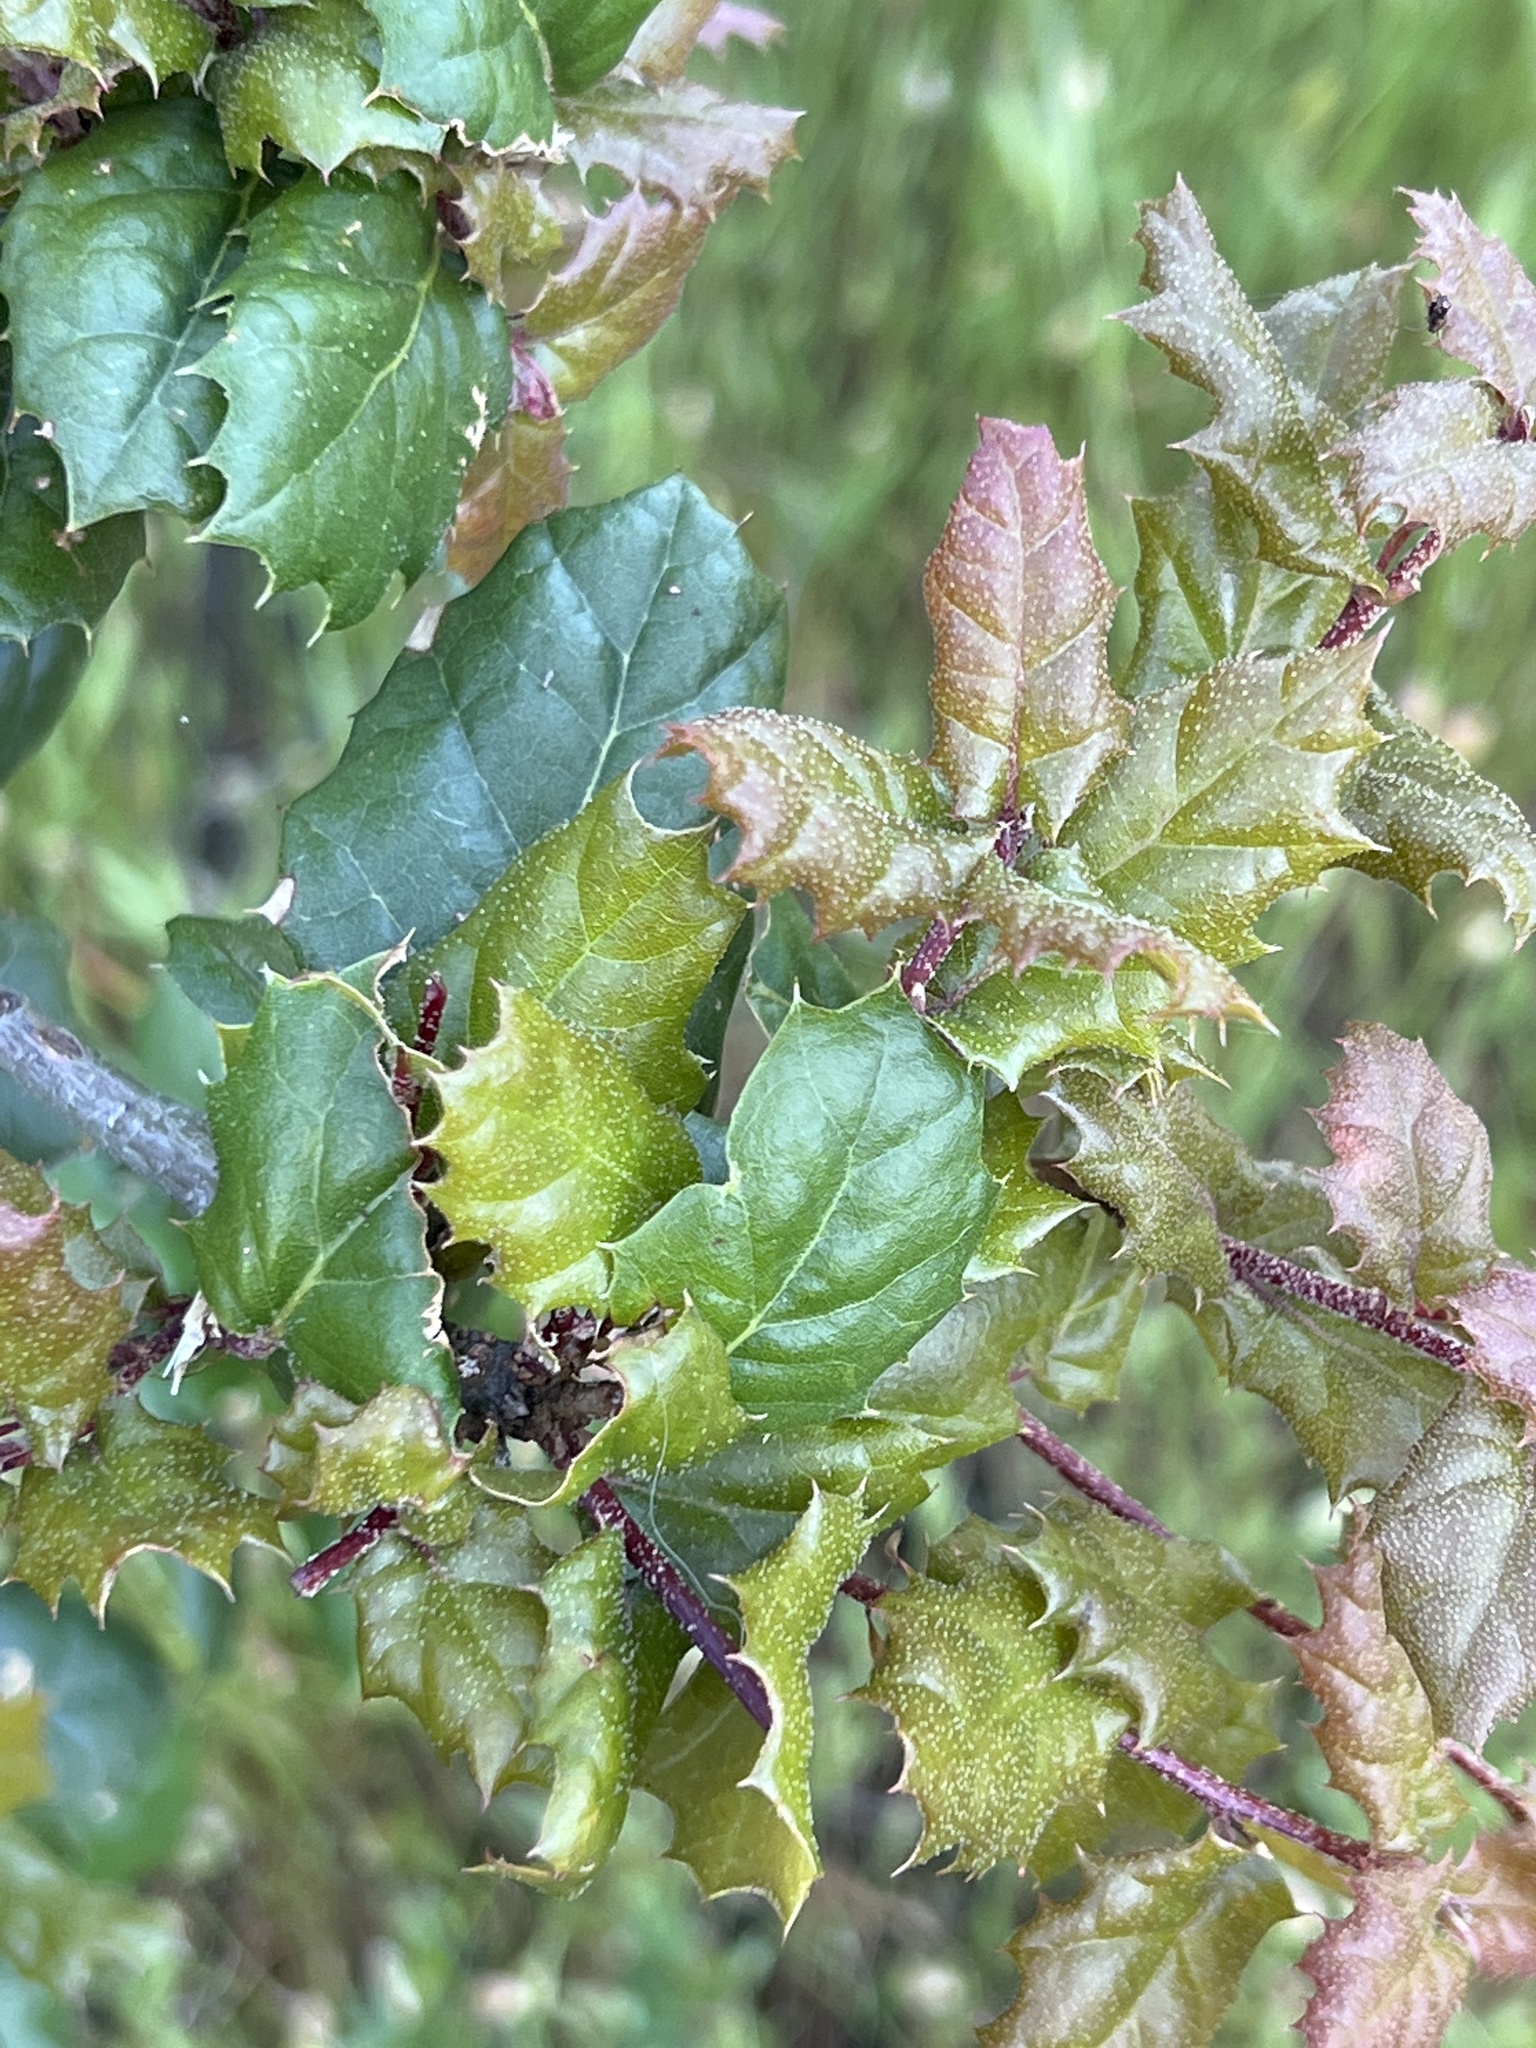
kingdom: Plantae
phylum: Tracheophyta
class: Magnoliopsida
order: Fagales
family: Fagaceae
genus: Quercus
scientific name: Quercus agrifolia
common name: California live oak
